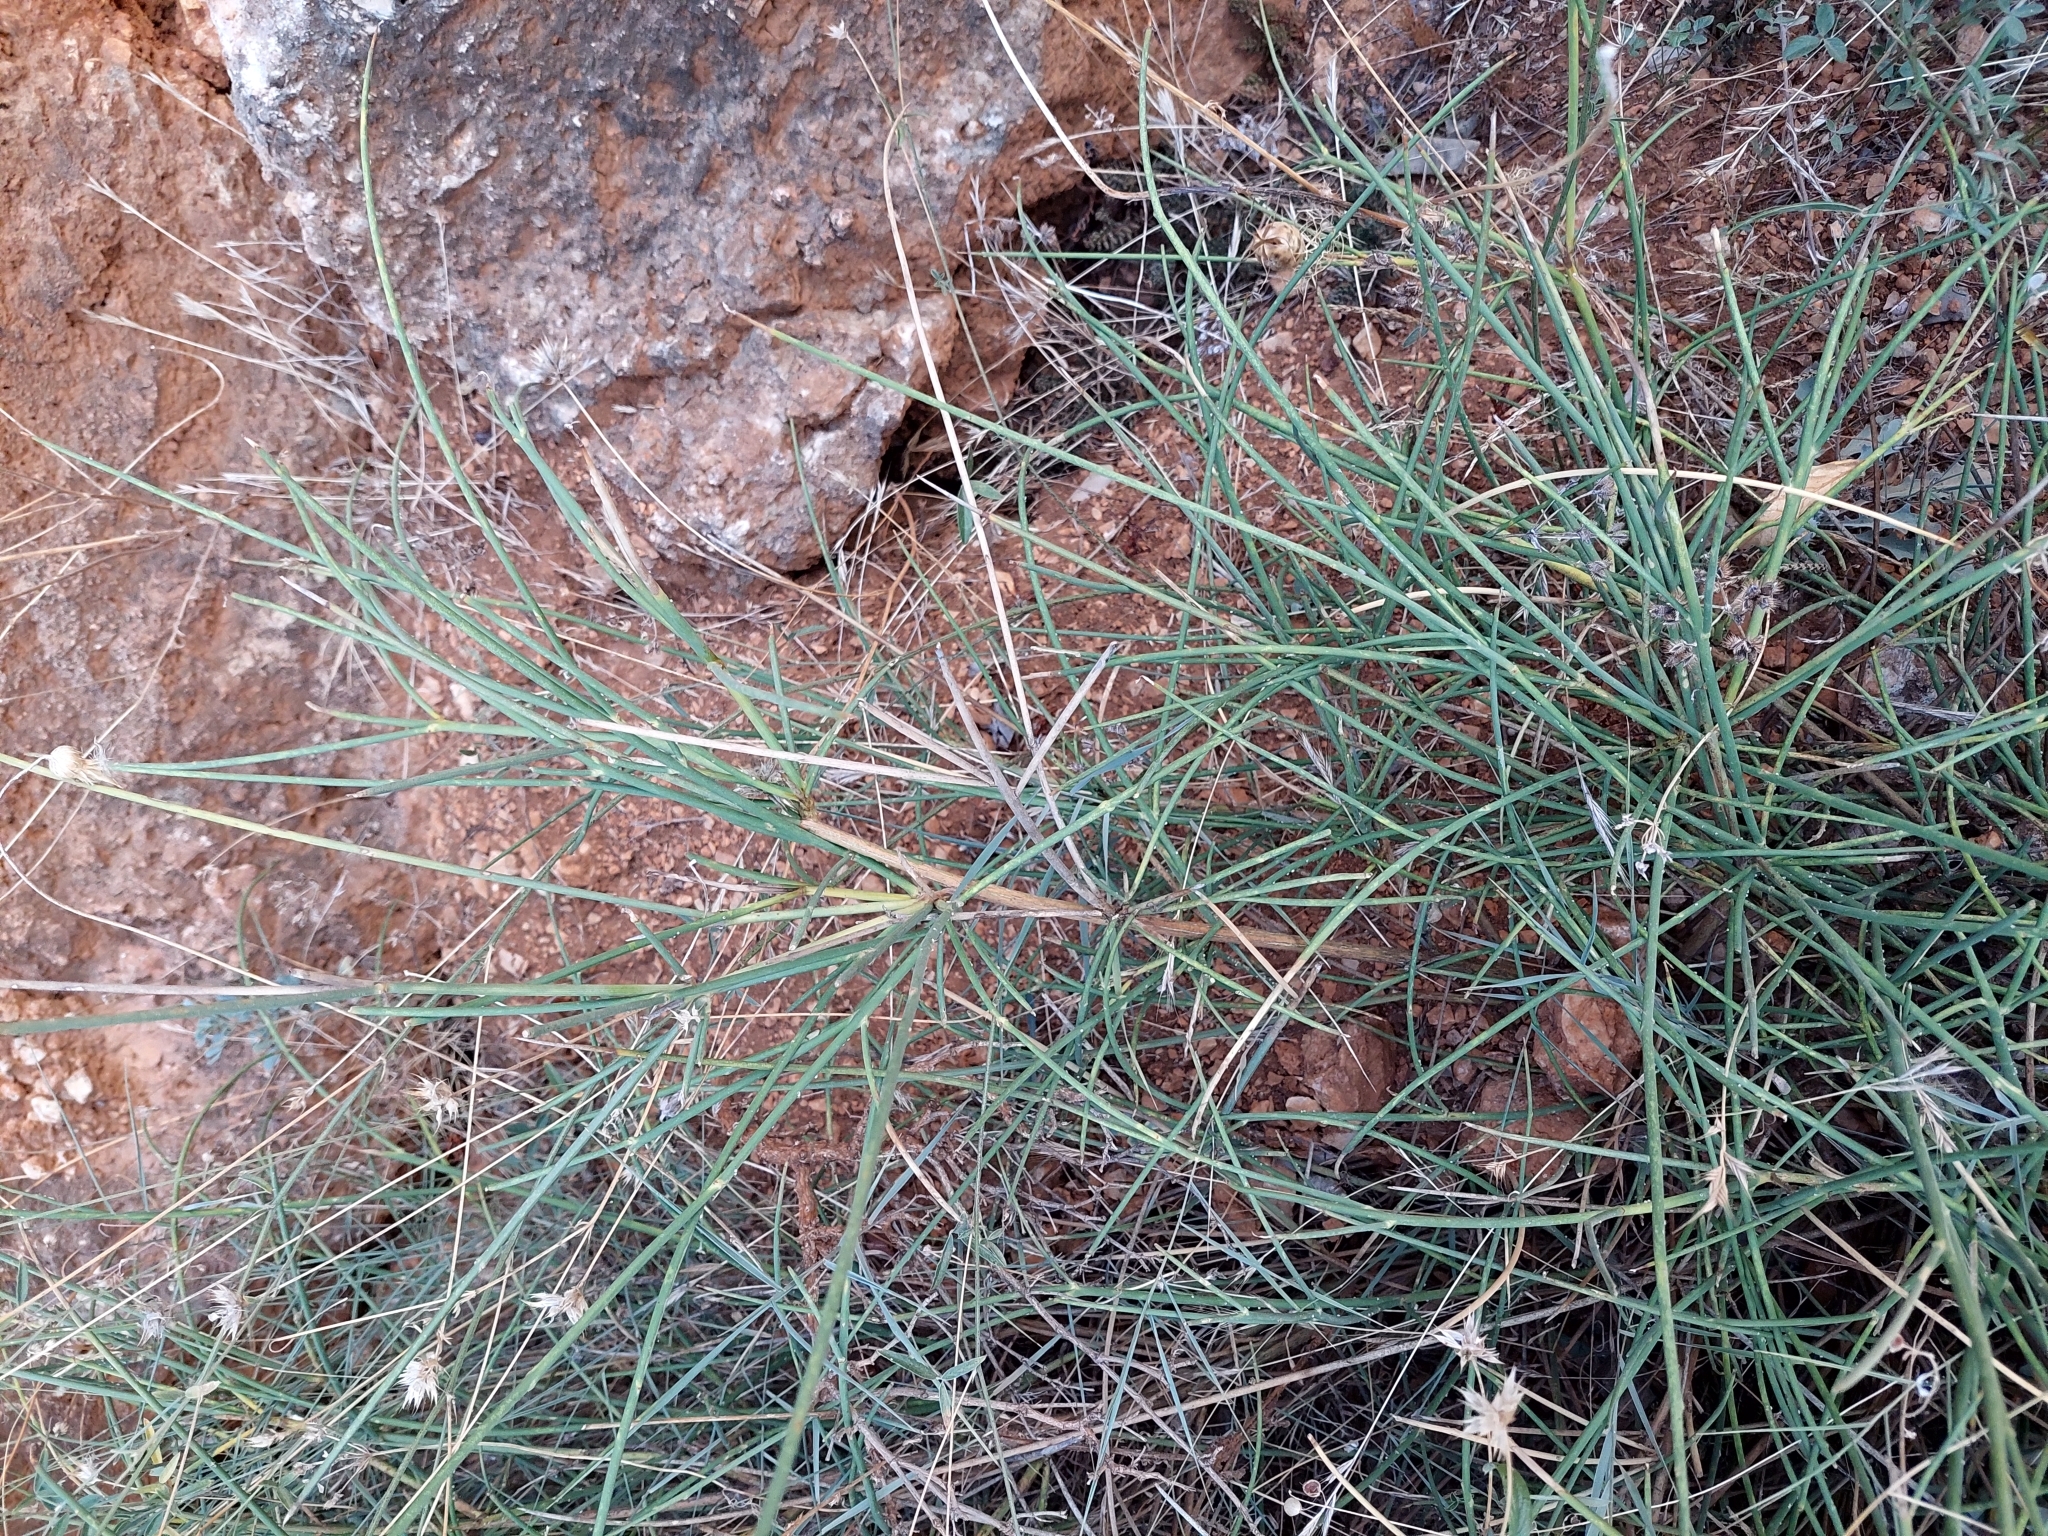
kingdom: Plantae
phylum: Tracheophyta
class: Magnoliopsida
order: Fabales
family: Fabaceae
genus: Spartium
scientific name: Spartium junceum
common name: Spanish broom
